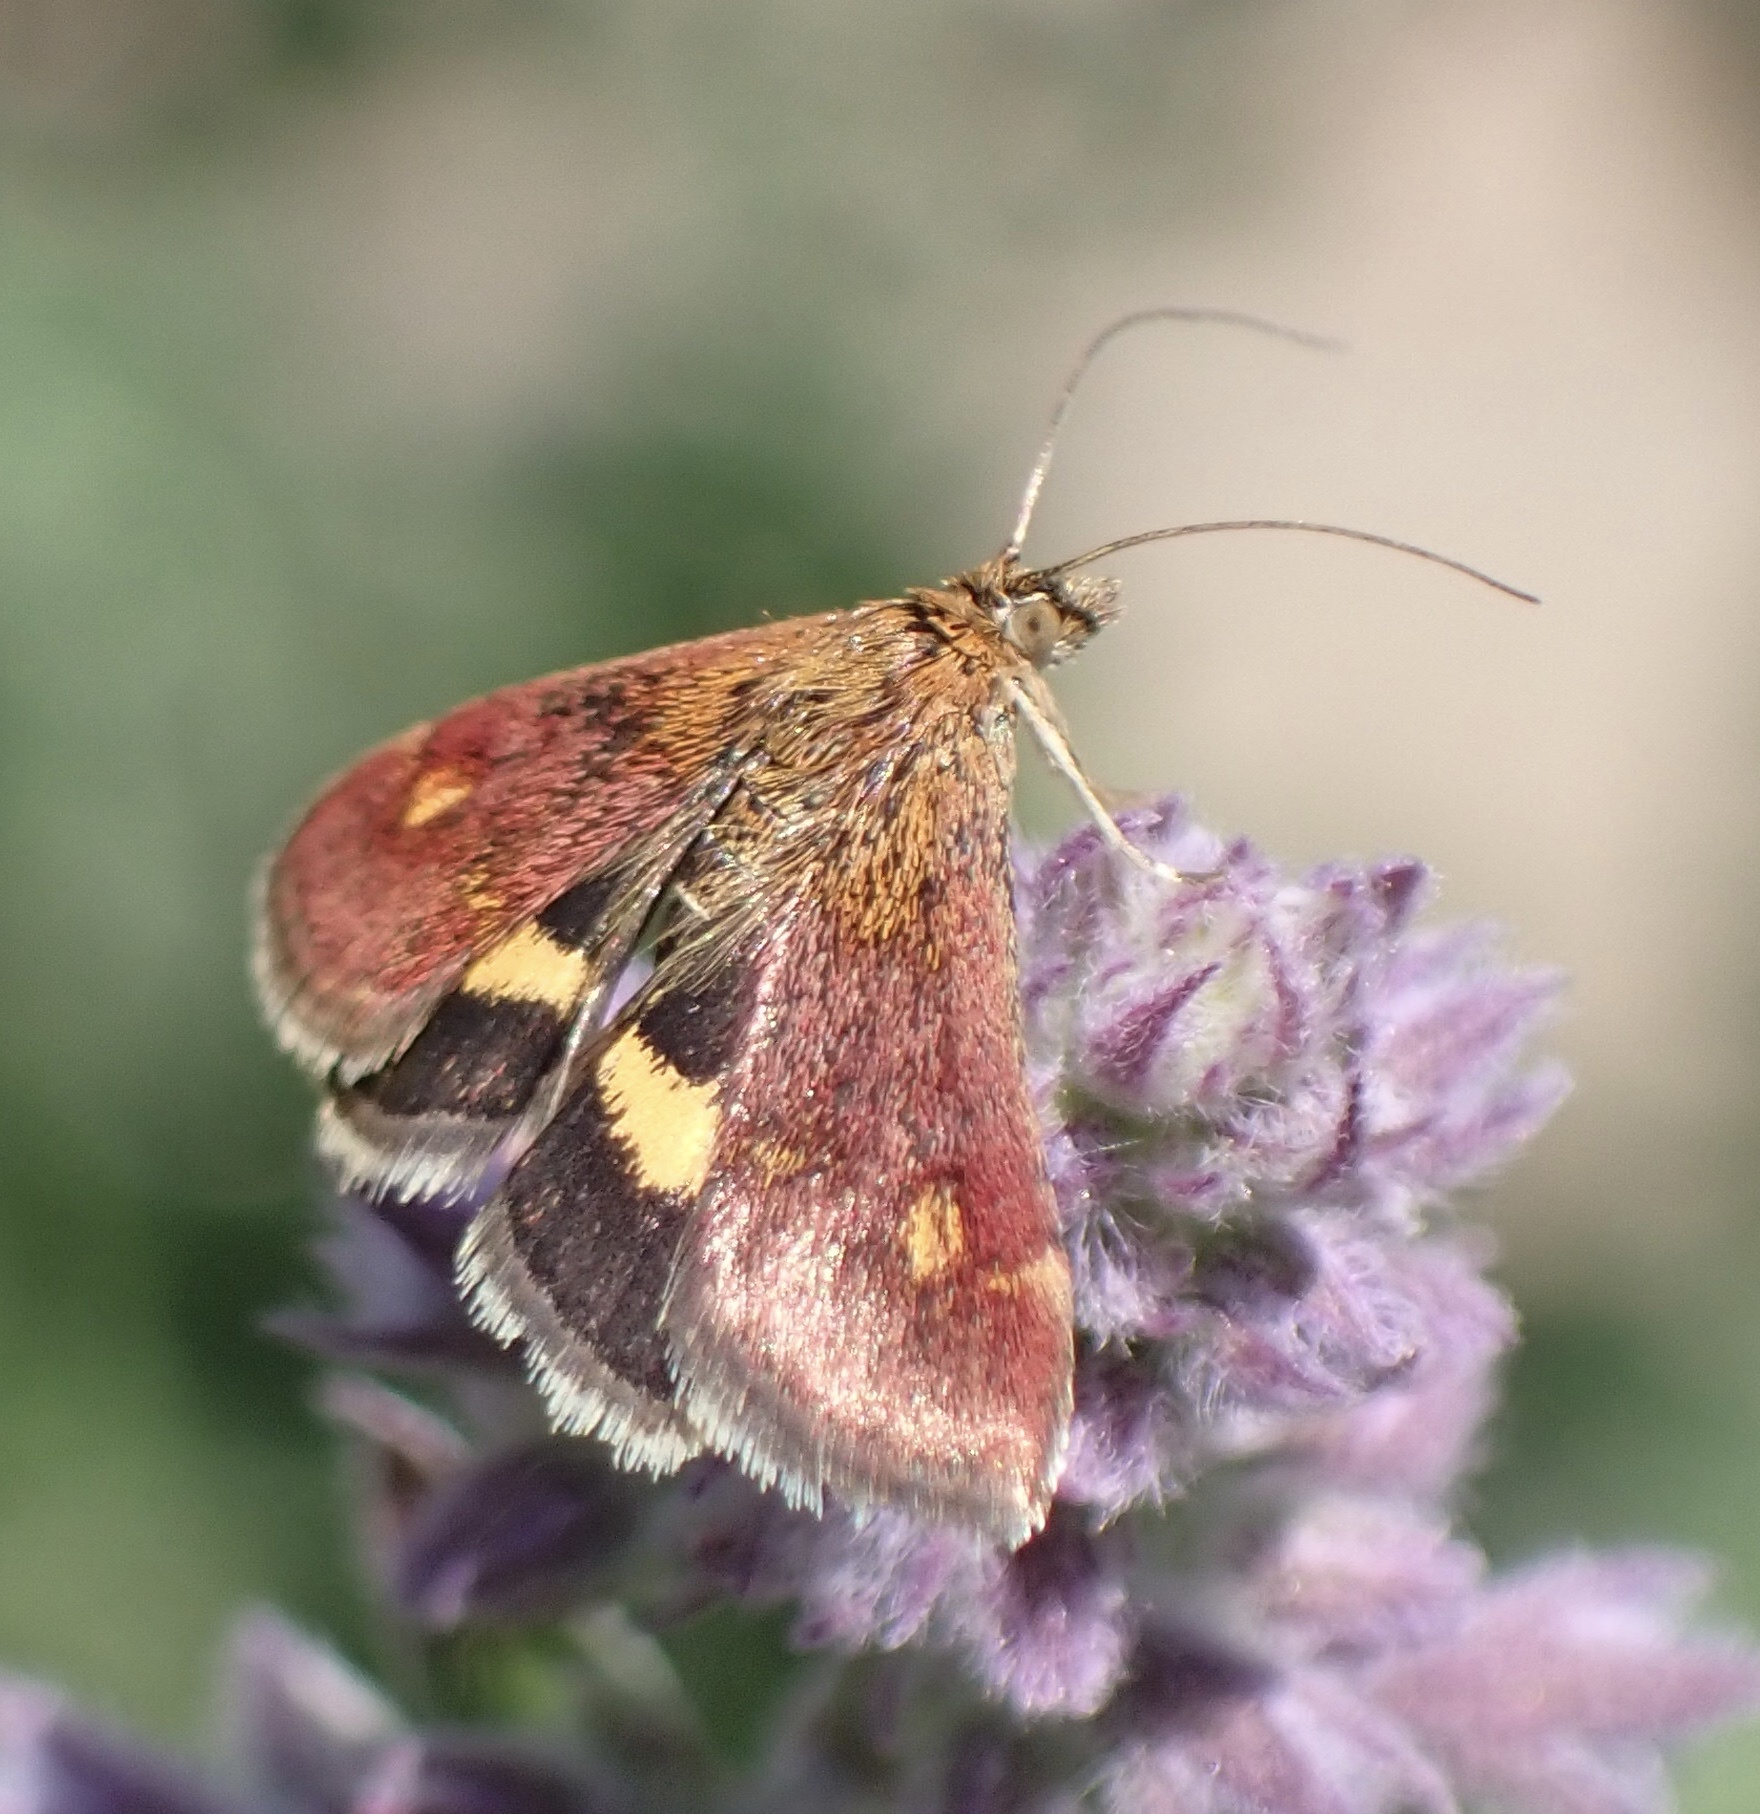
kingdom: Animalia
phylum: Arthropoda
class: Insecta
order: Lepidoptera
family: Crambidae
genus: Pyrausta
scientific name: Pyrausta aurata
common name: Small purple & gold
